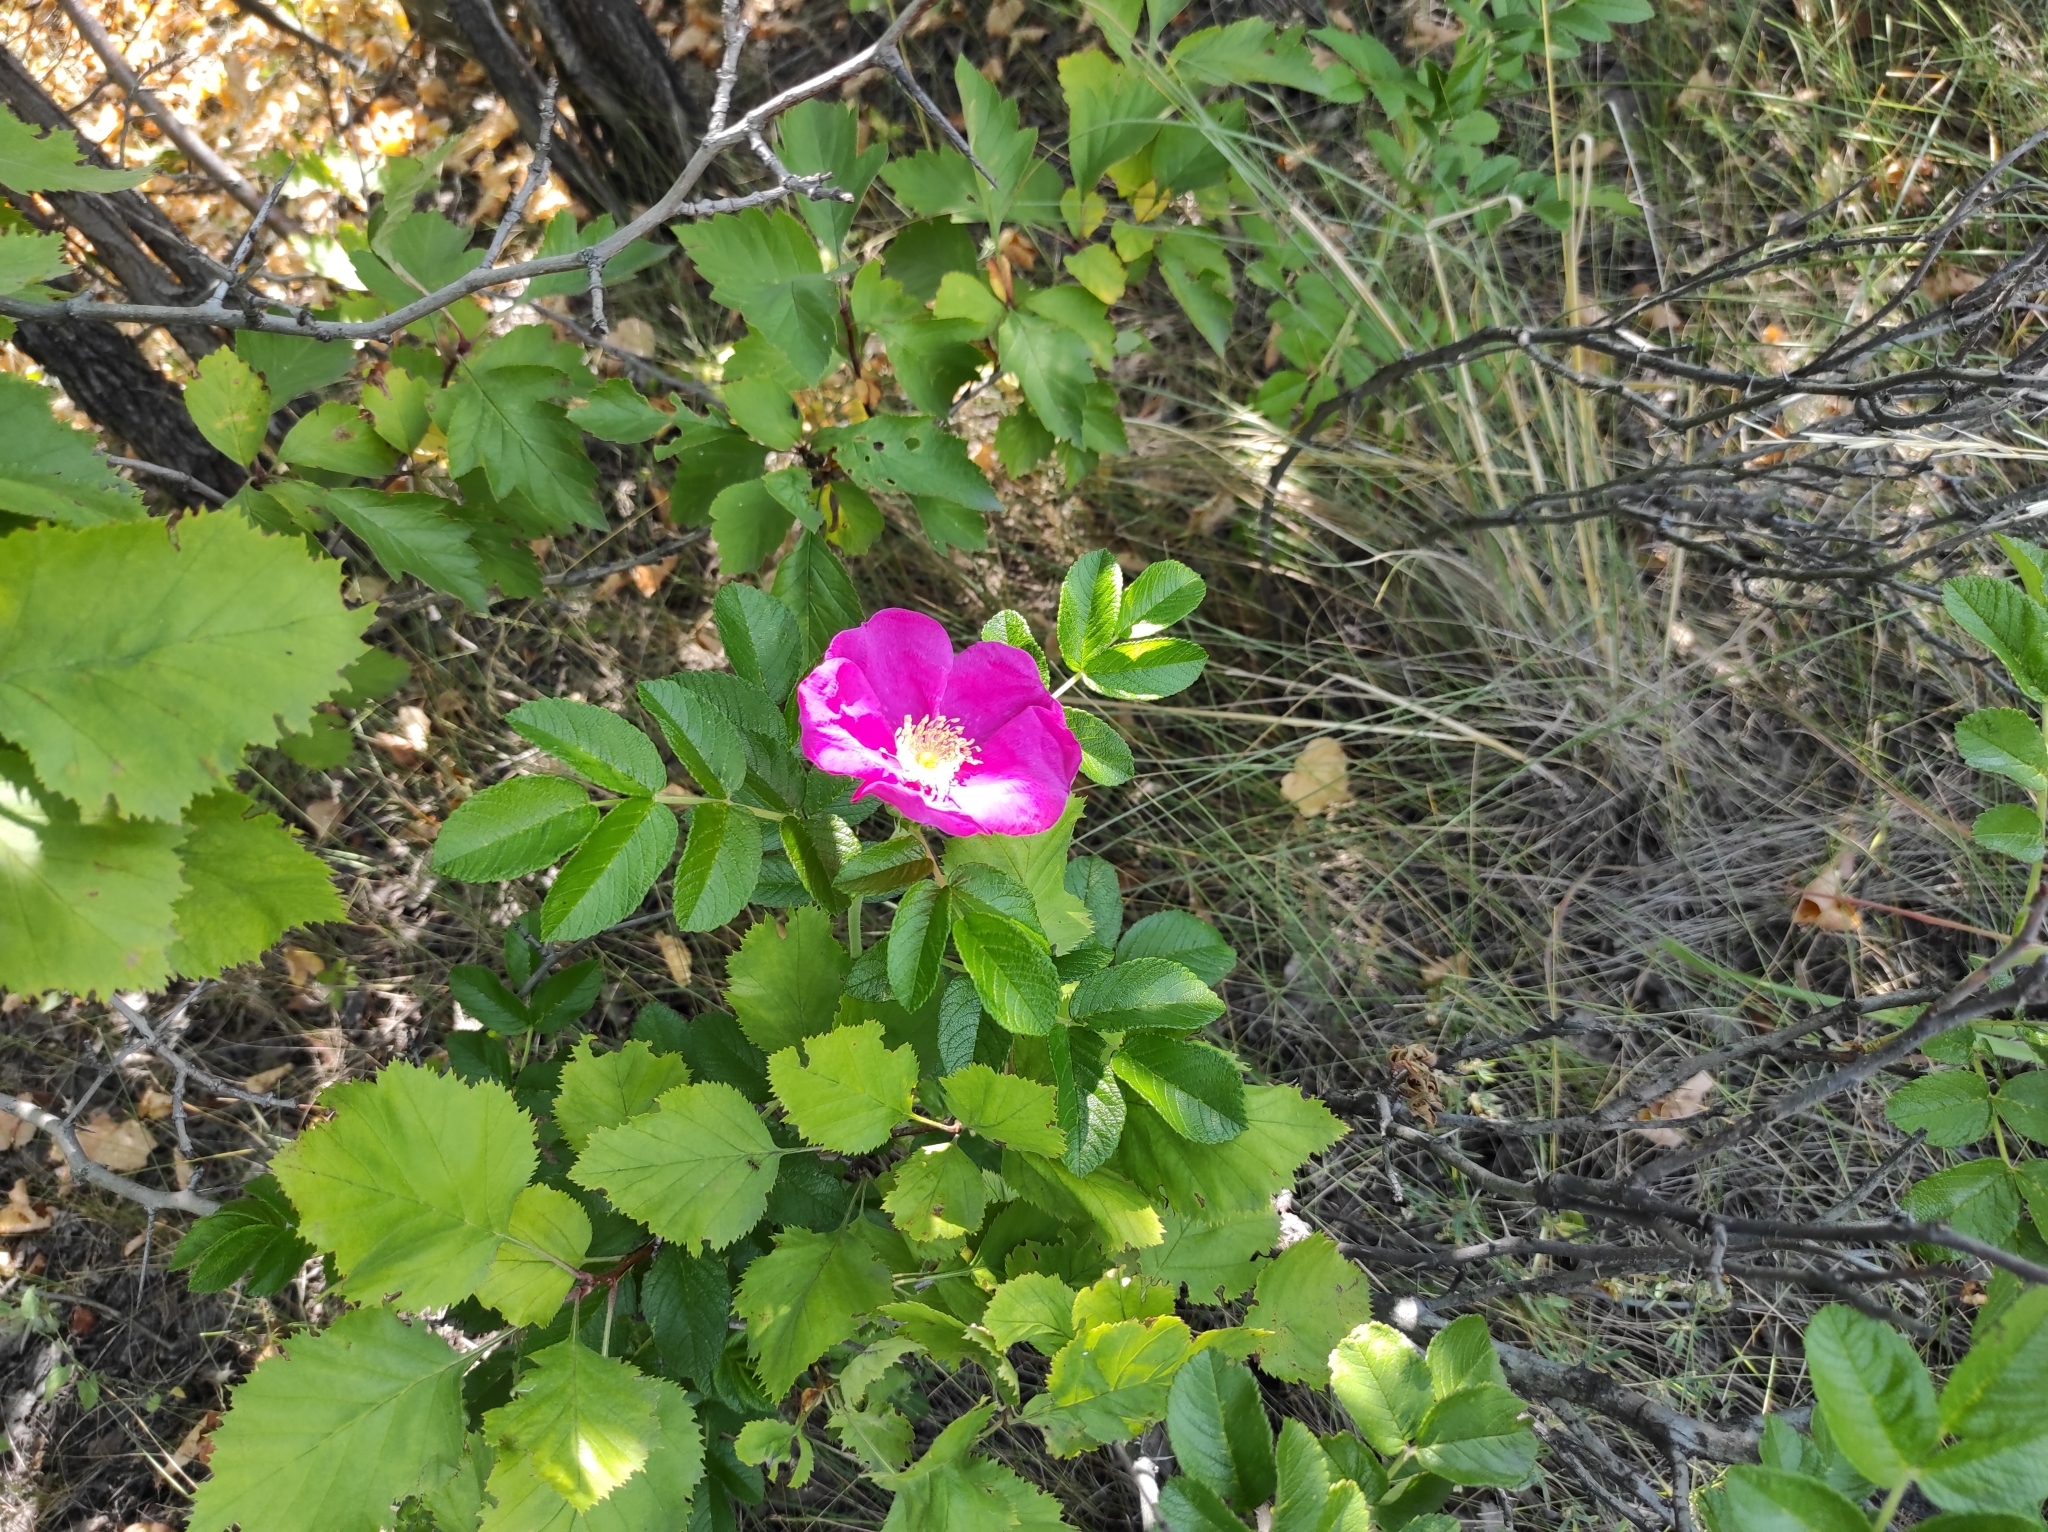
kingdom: Plantae
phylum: Tracheophyta
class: Magnoliopsida
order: Rosales
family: Rosaceae
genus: Rosa
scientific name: Rosa rugosa
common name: Japanese rose
